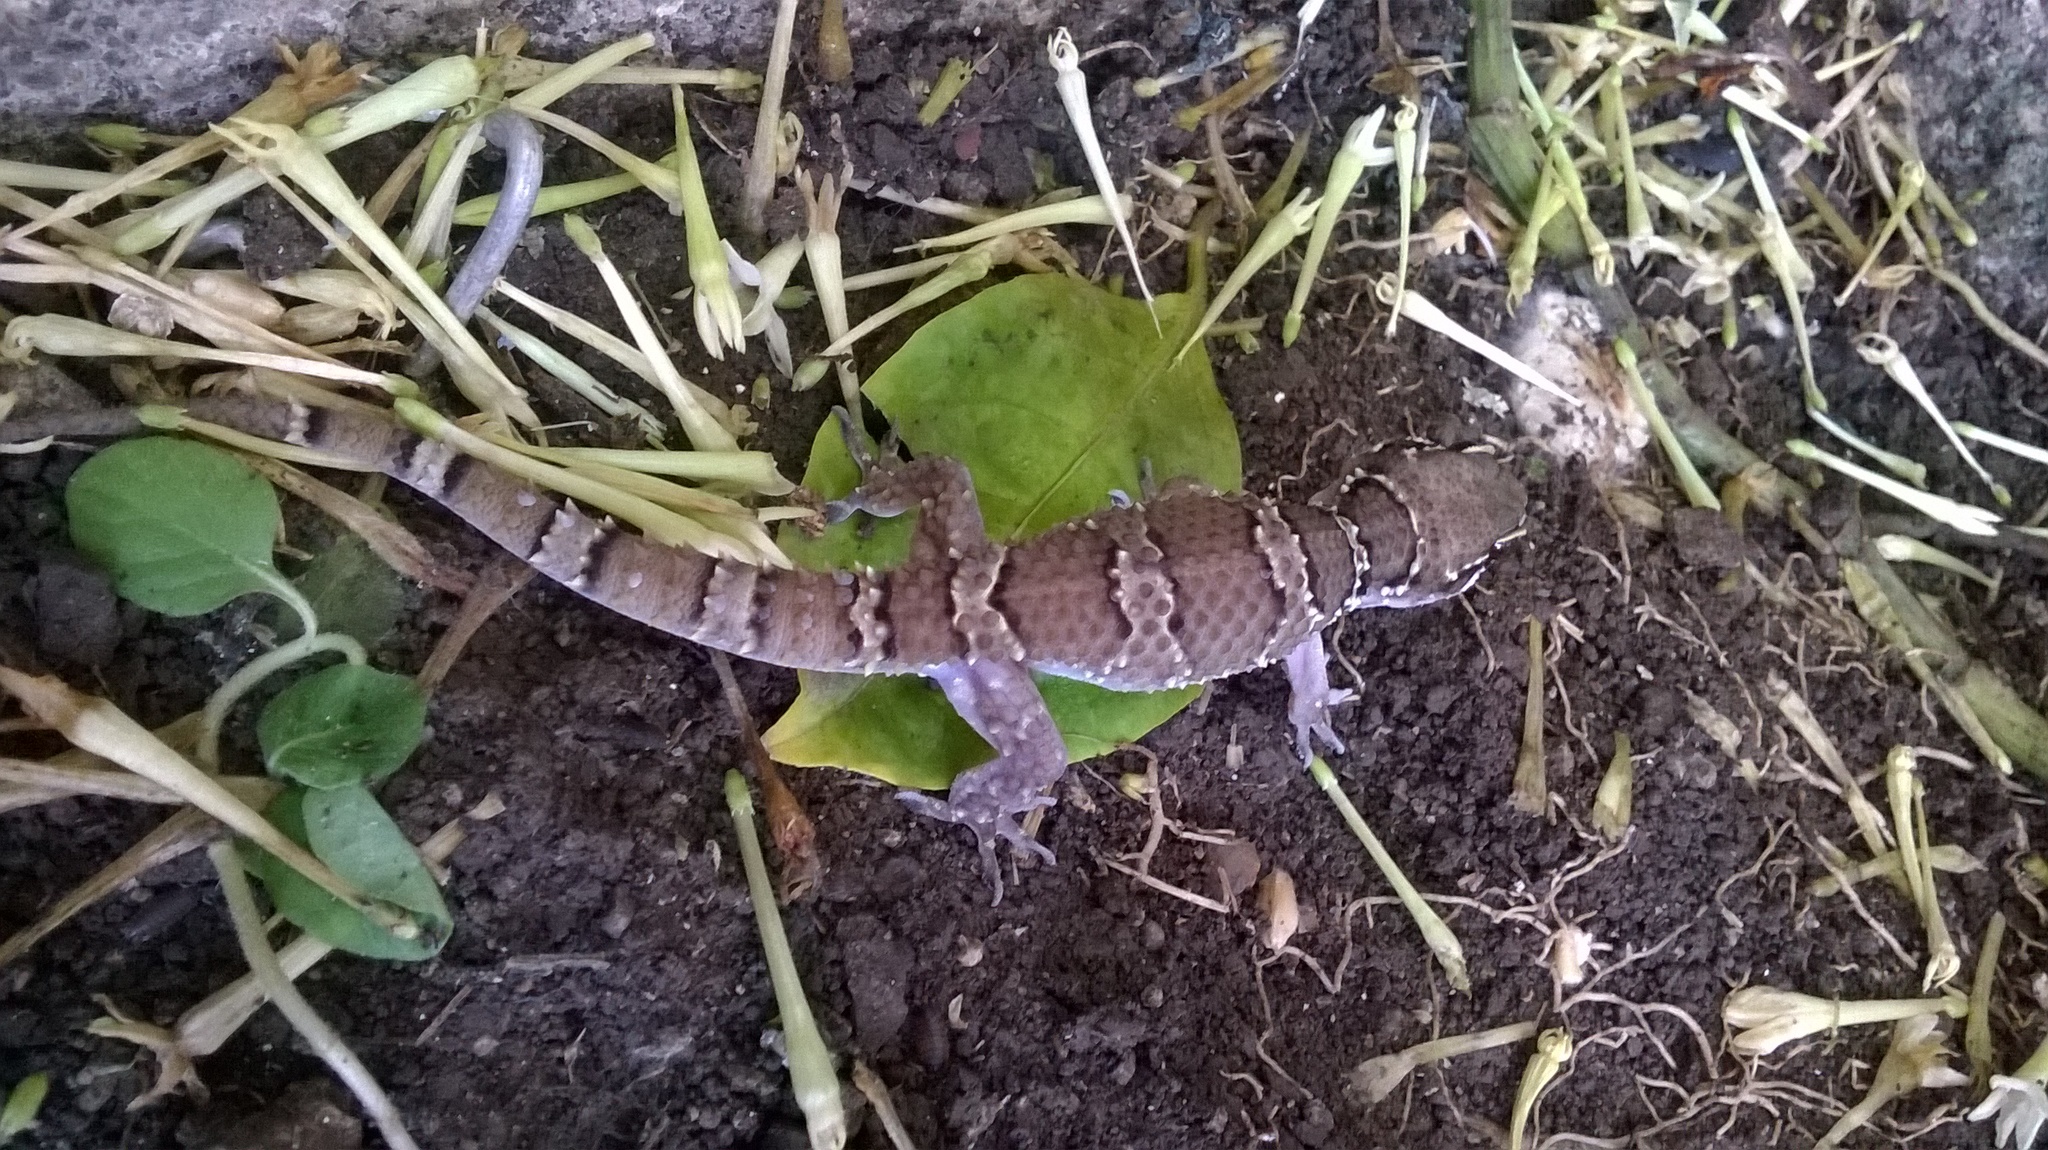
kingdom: Animalia
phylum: Chordata
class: Squamata
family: Gekkonidae
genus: Hemidactylus
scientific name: Hemidactylus triedrus
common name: Blotched house gecko
